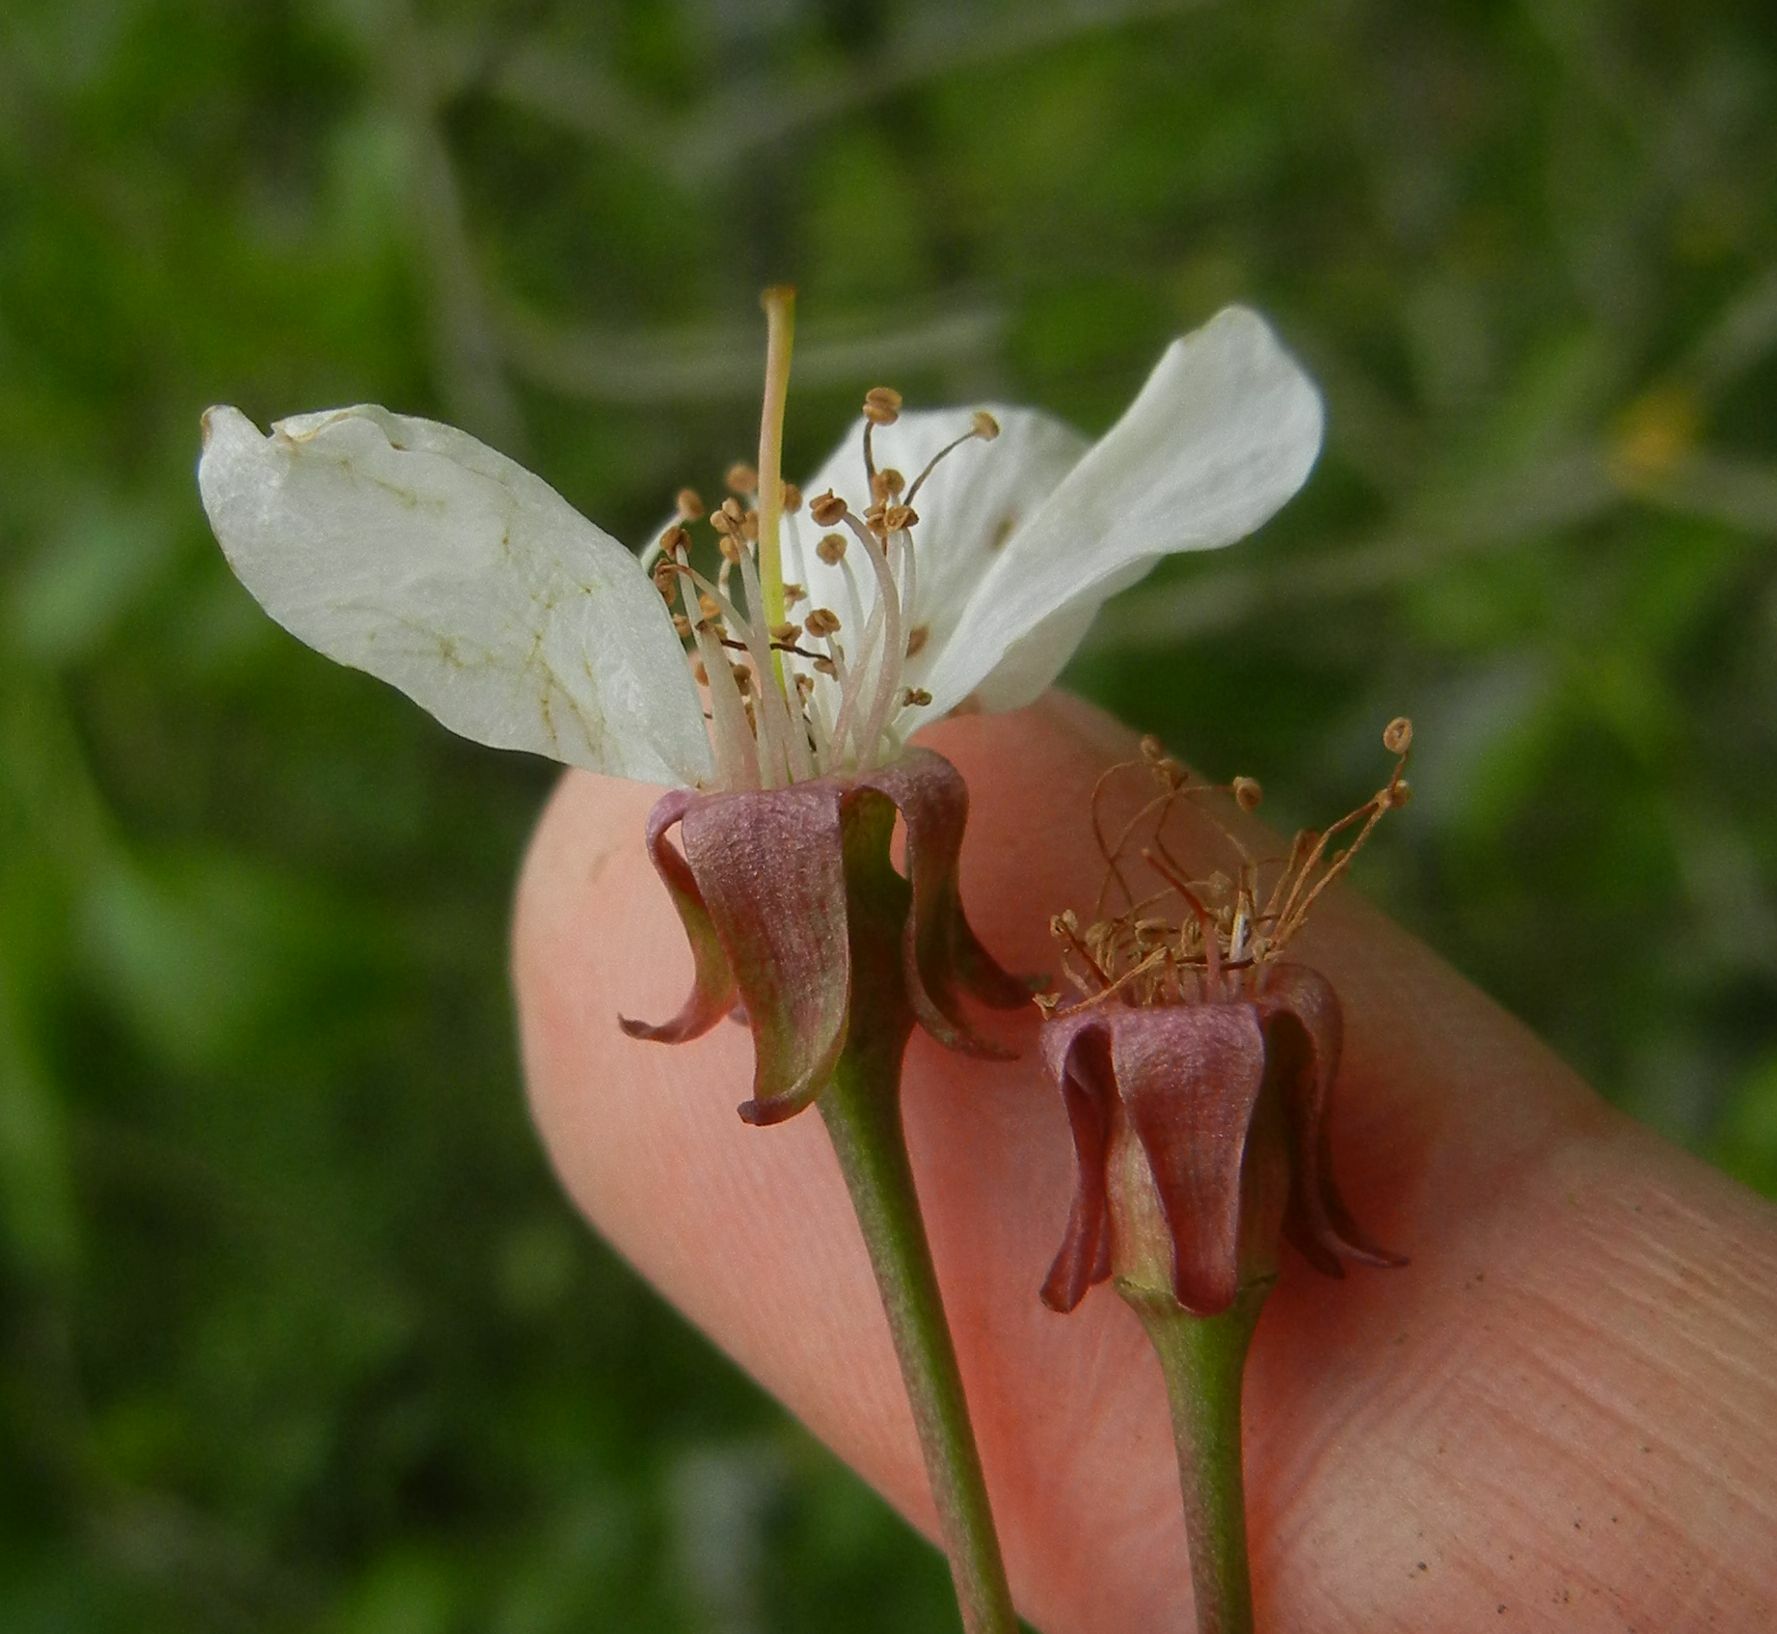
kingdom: Plantae
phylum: Tracheophyta
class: Magnoliopsida
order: Rosales
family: Rosaceae
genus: Prunus
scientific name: Prunus cerasifera
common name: Cherry plum
